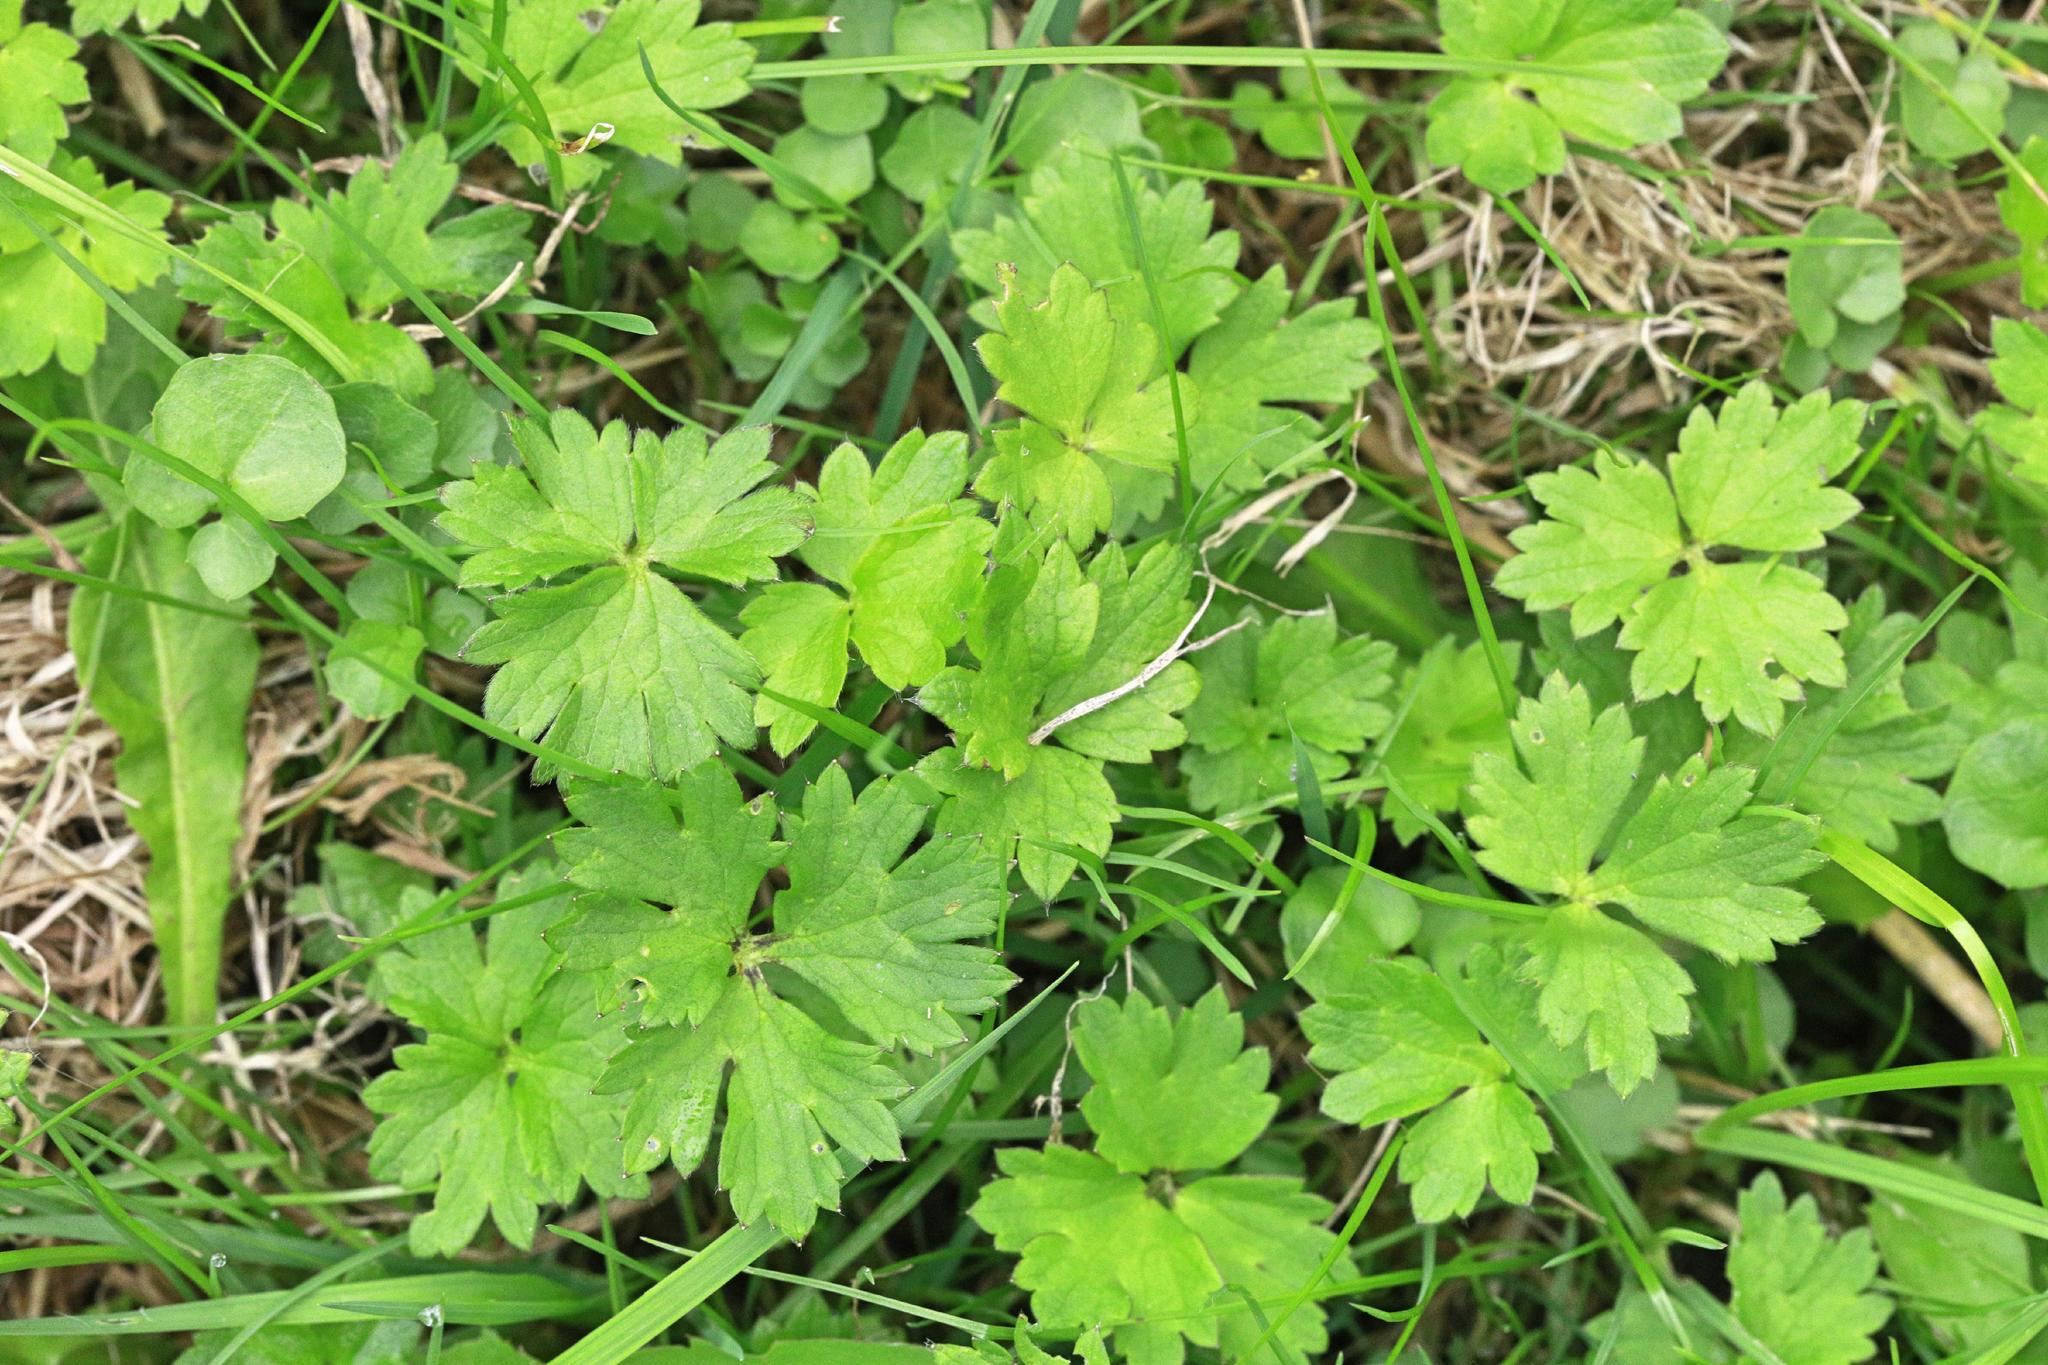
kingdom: Plantae
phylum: Tracheophyta
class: Magnoliopsida
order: Ranunculales
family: Ranunculaceae
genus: Ranunculus
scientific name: Ranunculus repens
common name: Creeping buttercup
